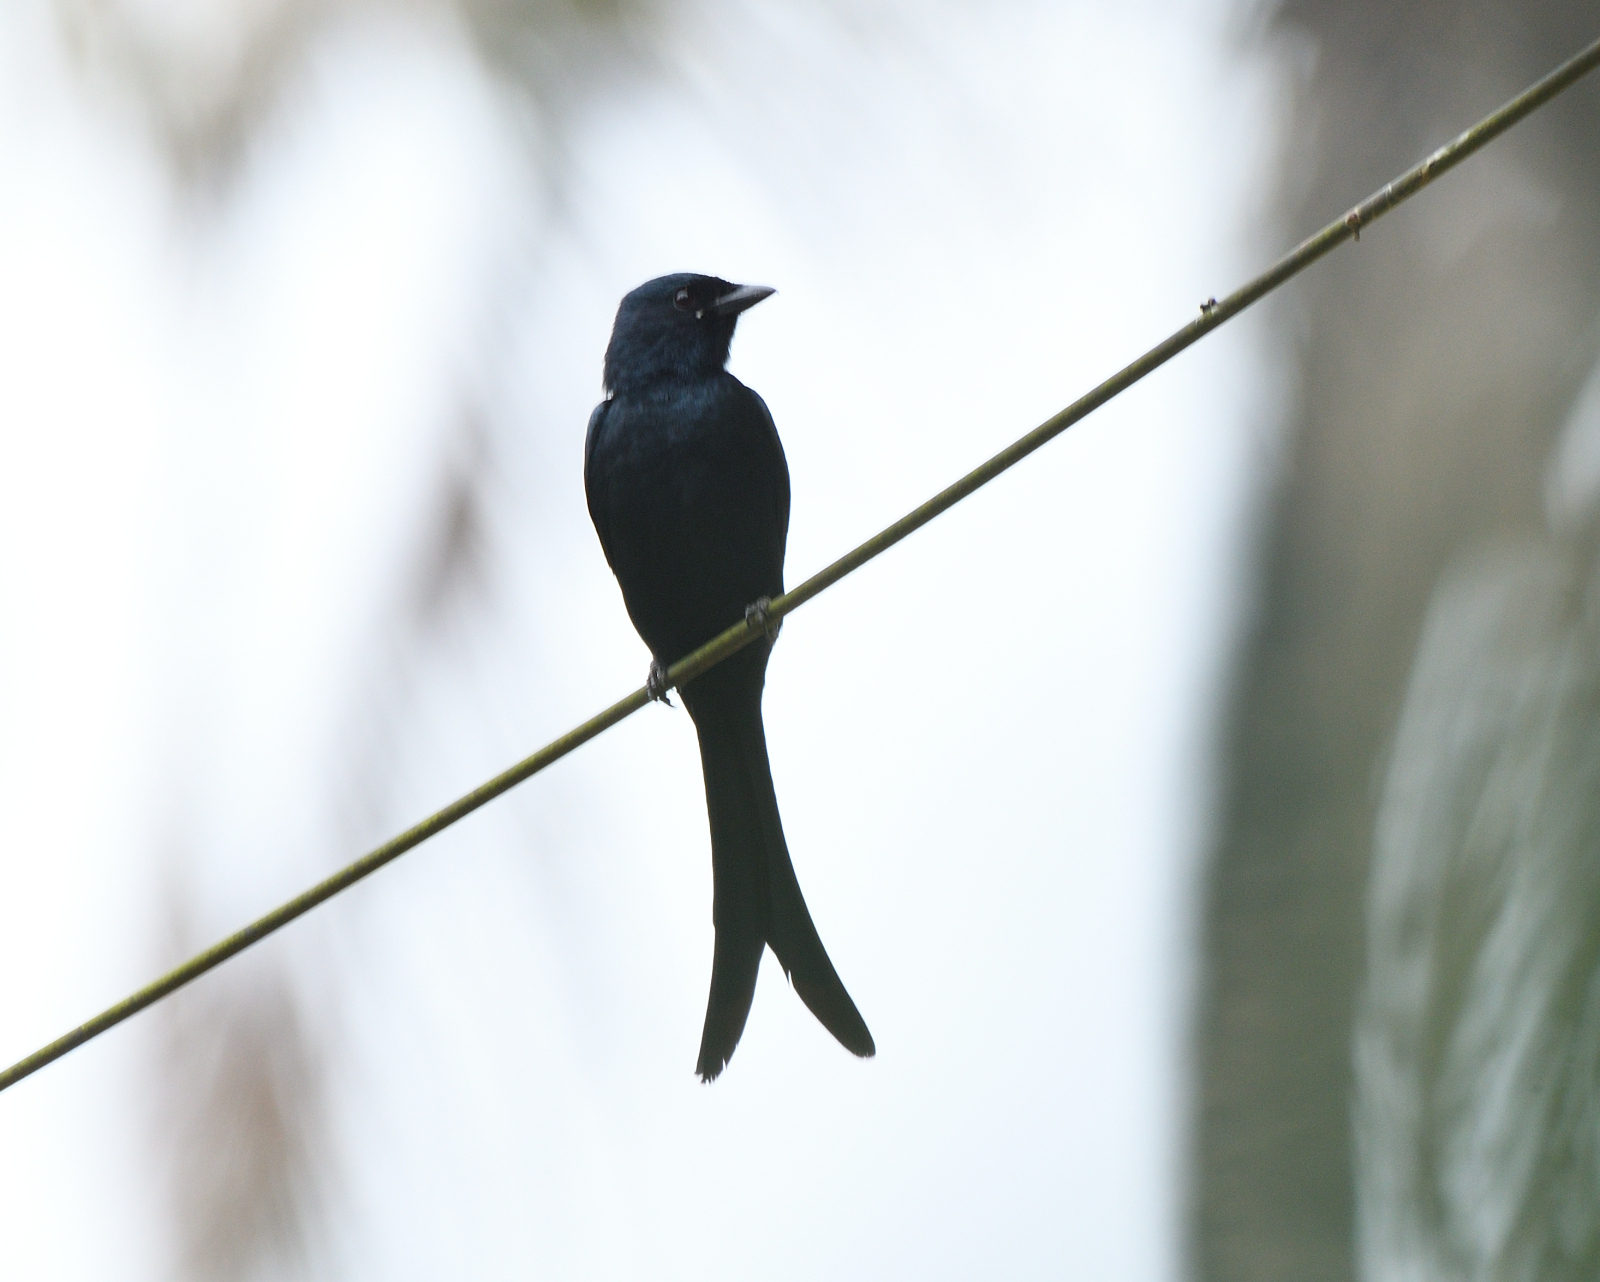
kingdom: Animalia
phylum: Chordata
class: Aves
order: Passeriformes
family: Dicruridae
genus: Dicrurus
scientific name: Dicrurus macrocercus
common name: Black drongo
